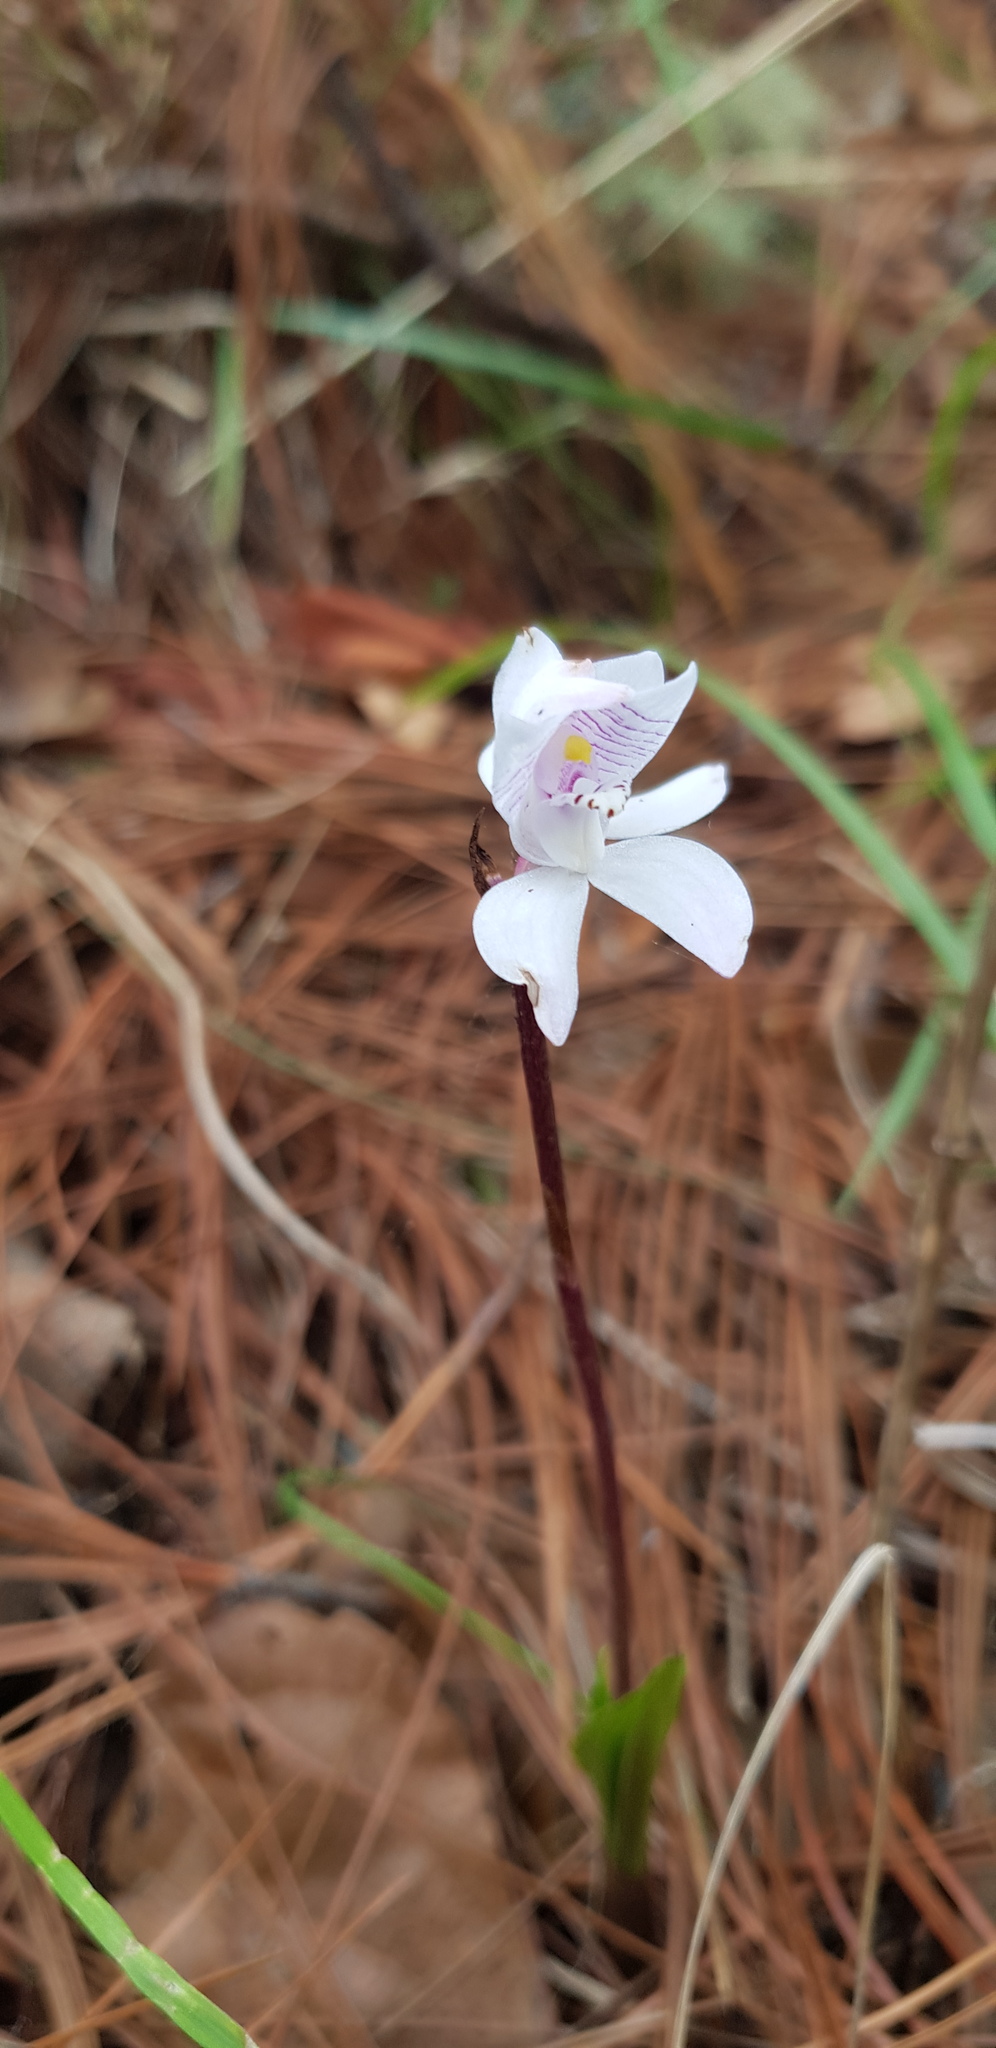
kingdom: Plantae
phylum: Tracheophyta
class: Liliopsida
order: Asparagales
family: Orchidaceae
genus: Govenia
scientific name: Govenia bella
